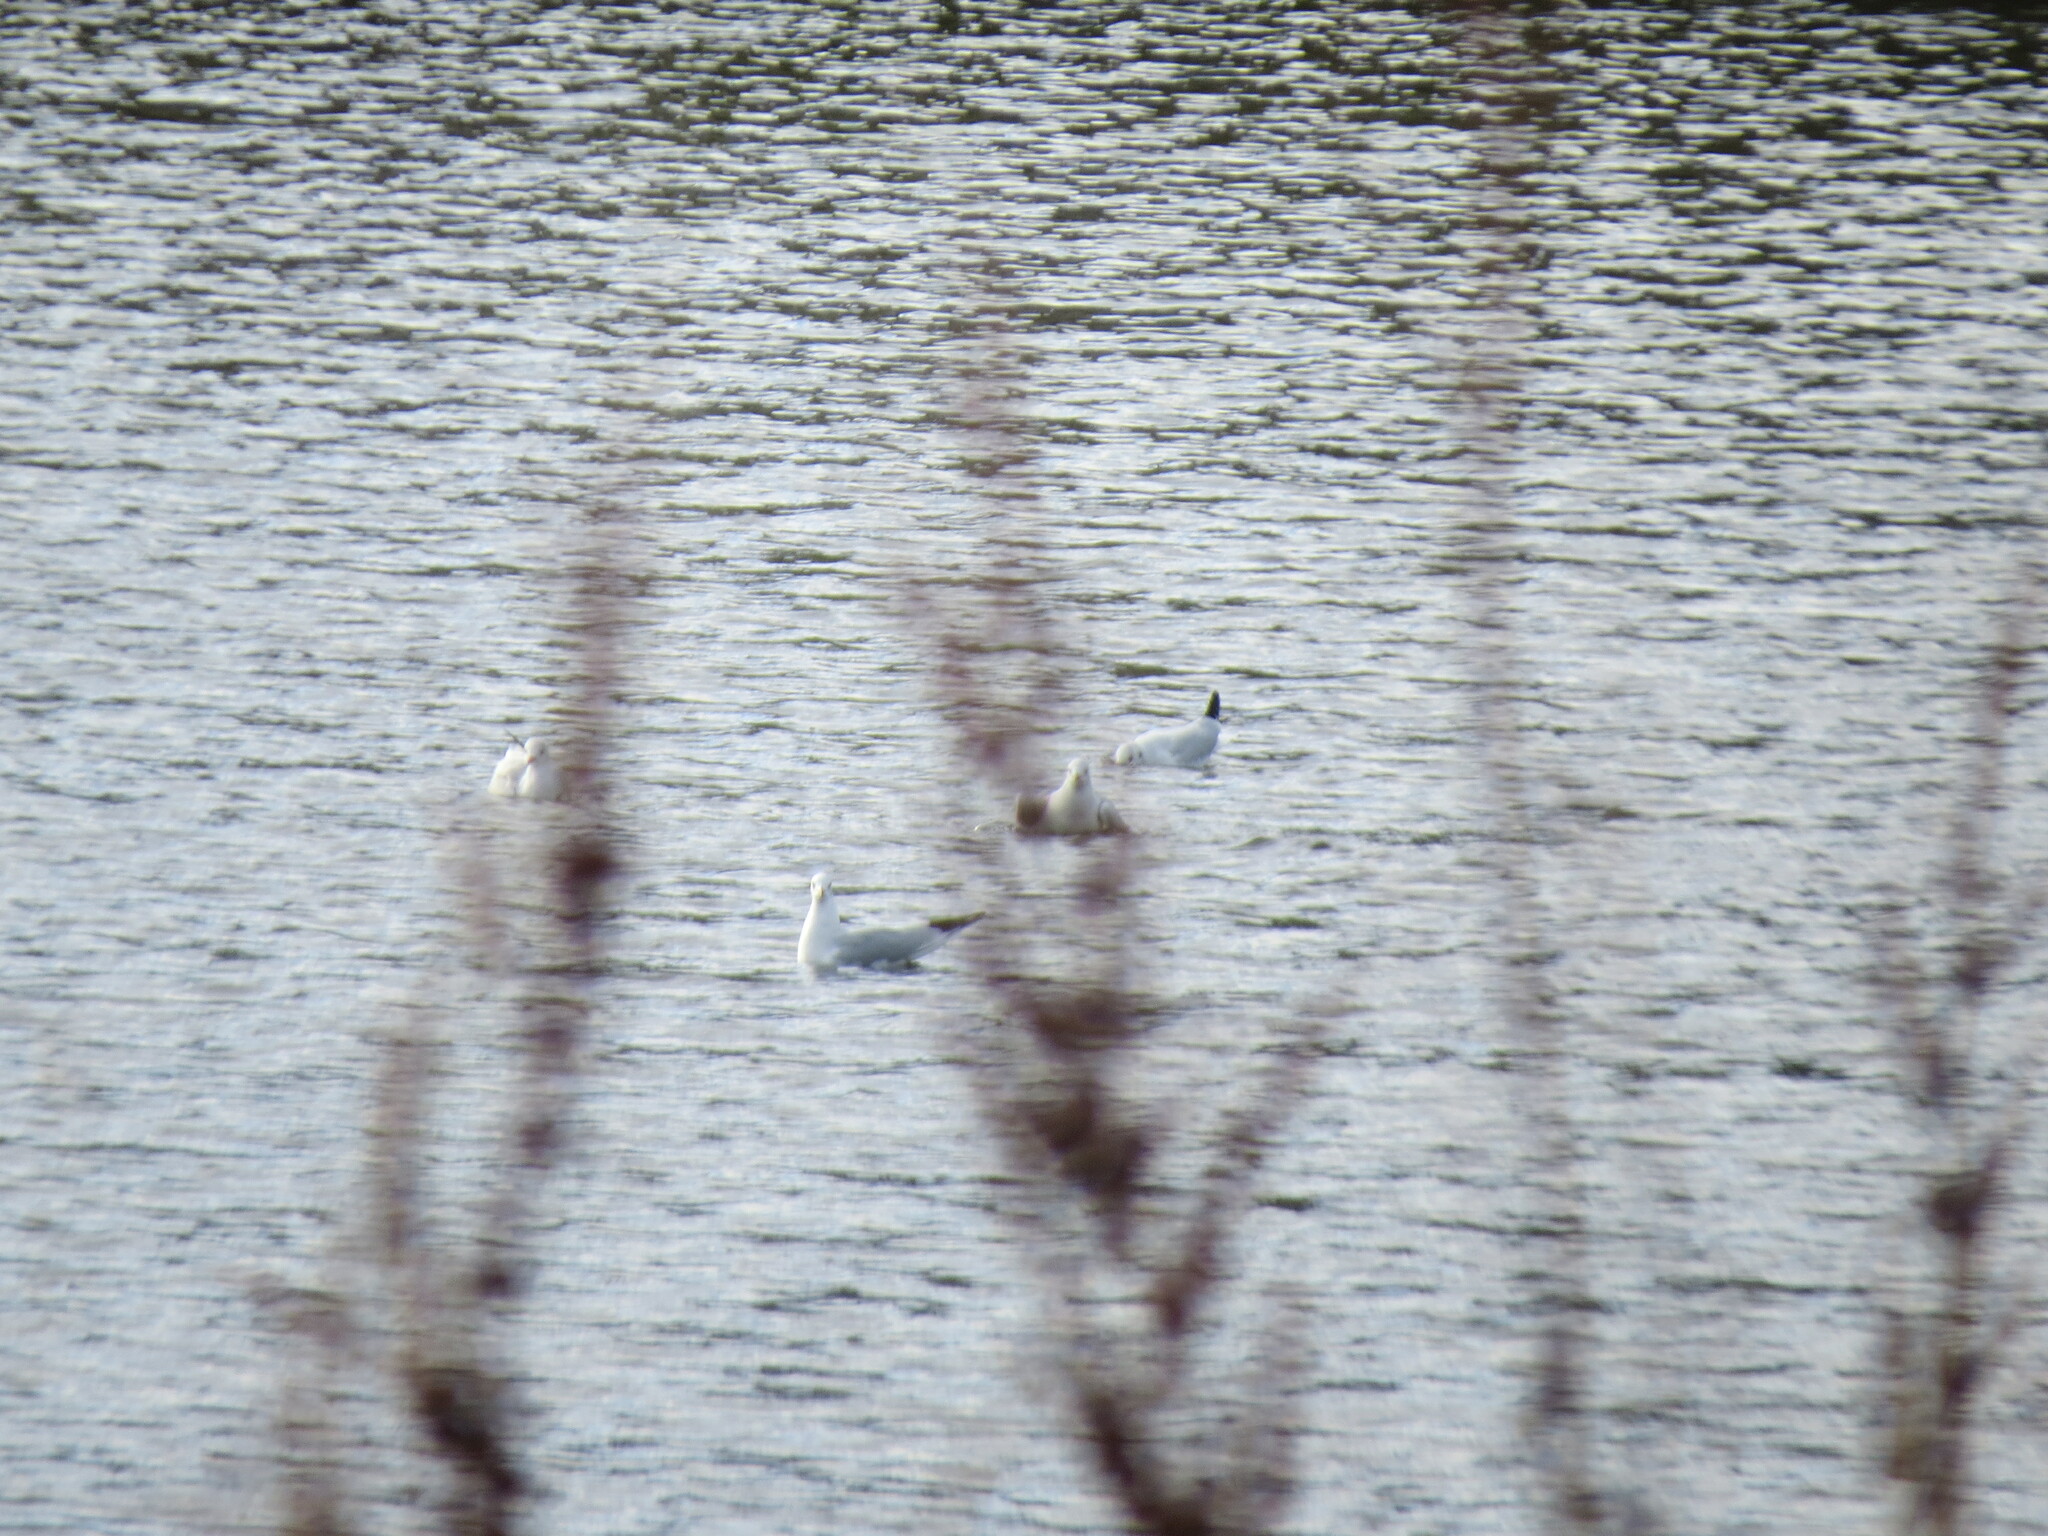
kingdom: Animalia
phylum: Chordata
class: Aves
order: Charadriiformes
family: Laridae
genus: Chroicocephalus
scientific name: Chroicocephalus ridibundus
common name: Black-headed gull
